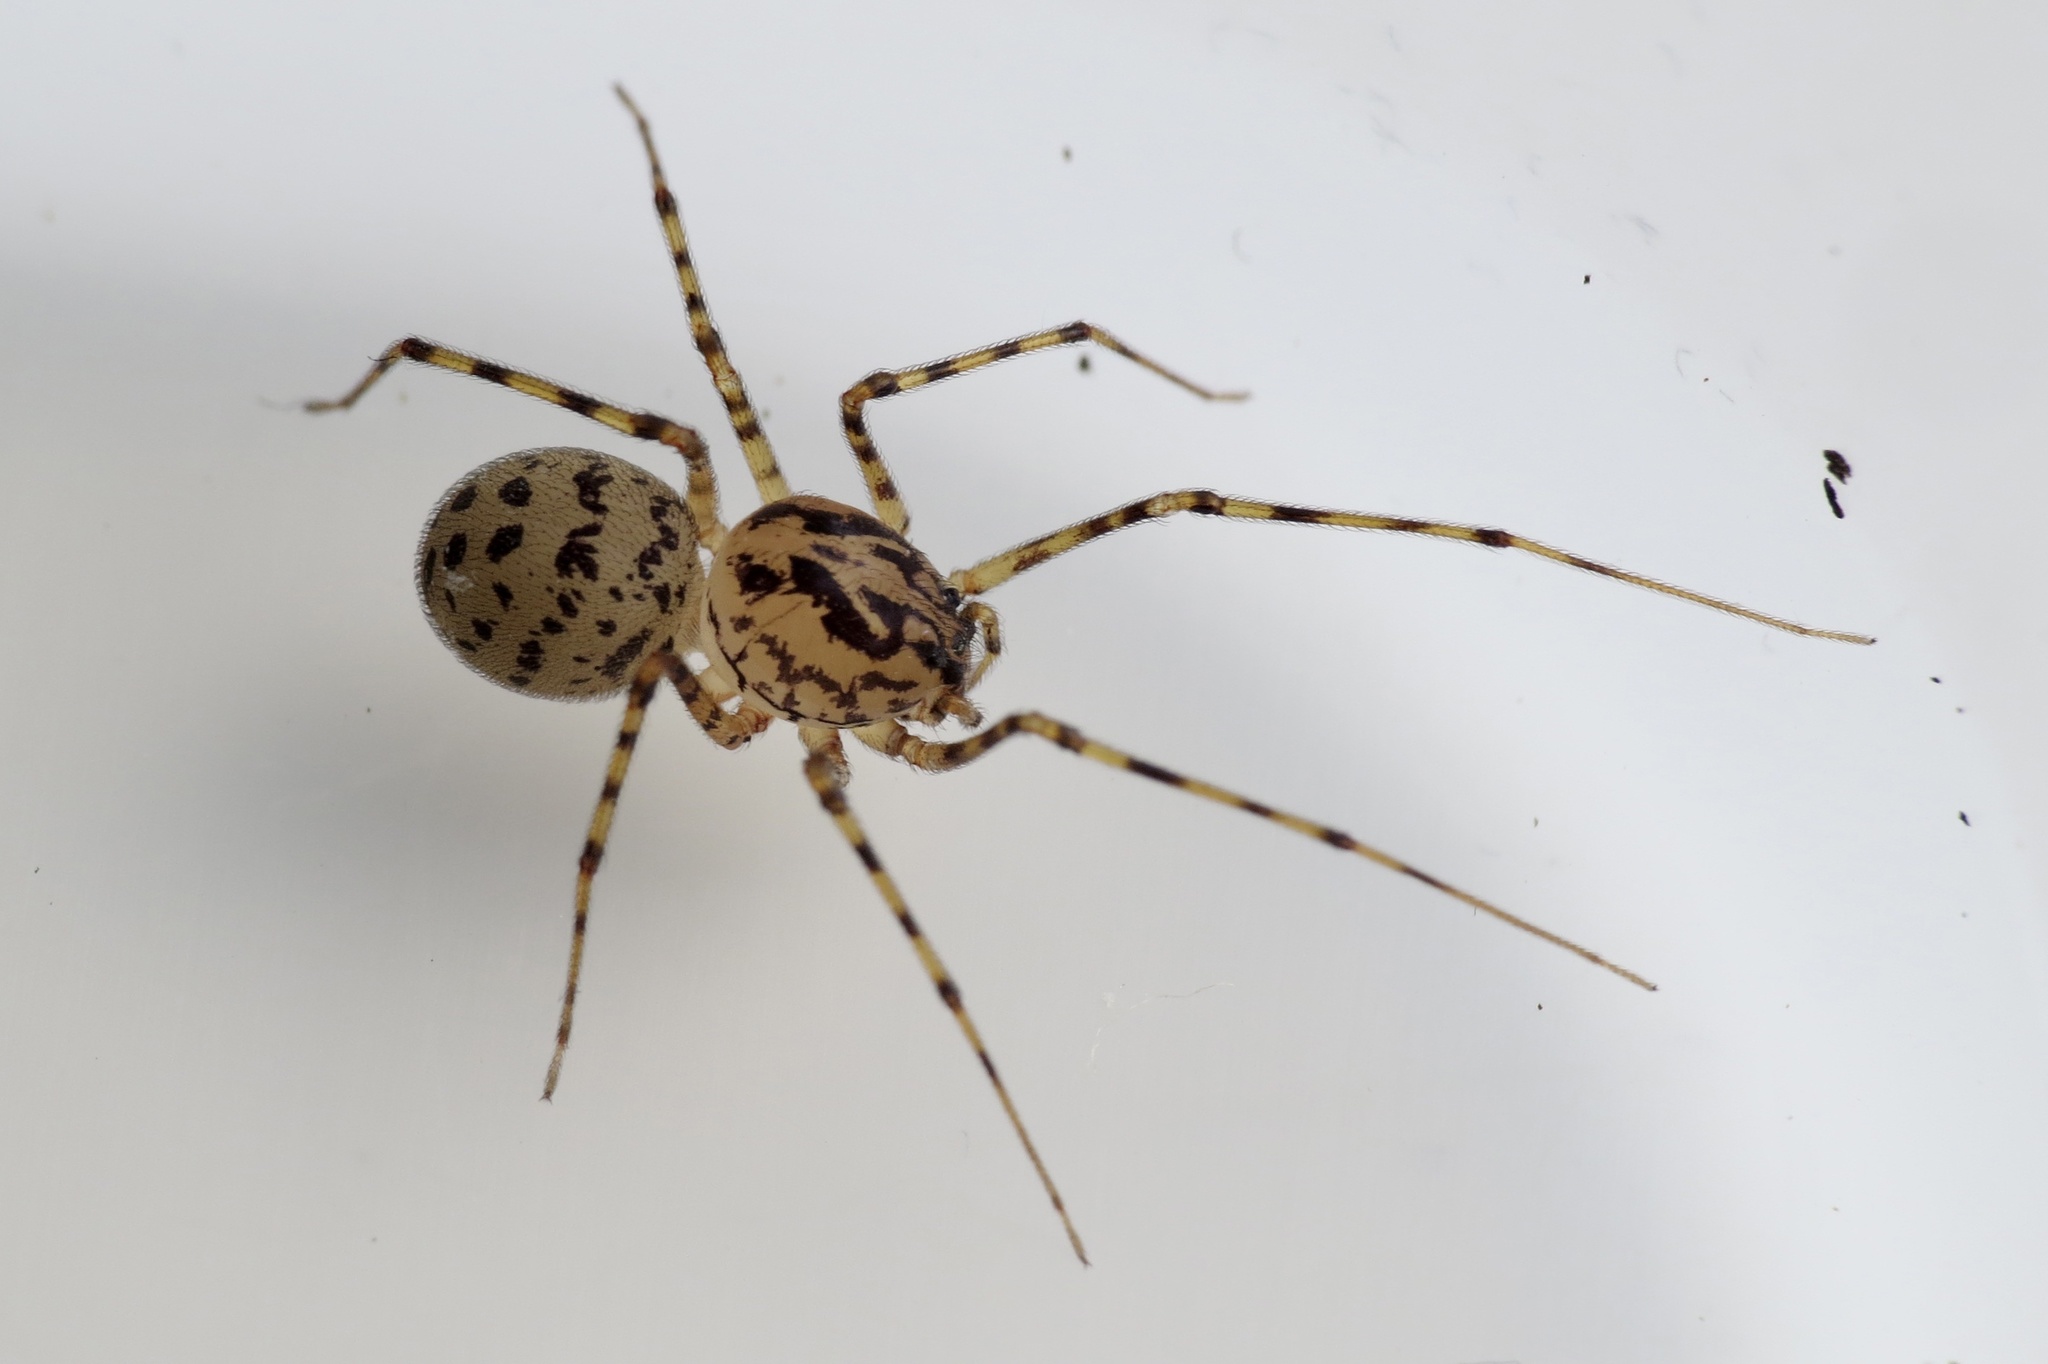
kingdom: Animalia
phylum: Arthropoda
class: Arachnida
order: Araneae
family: Scytodidae
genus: Scytodes
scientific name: Scytodes thoracica
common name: Spitting spider
